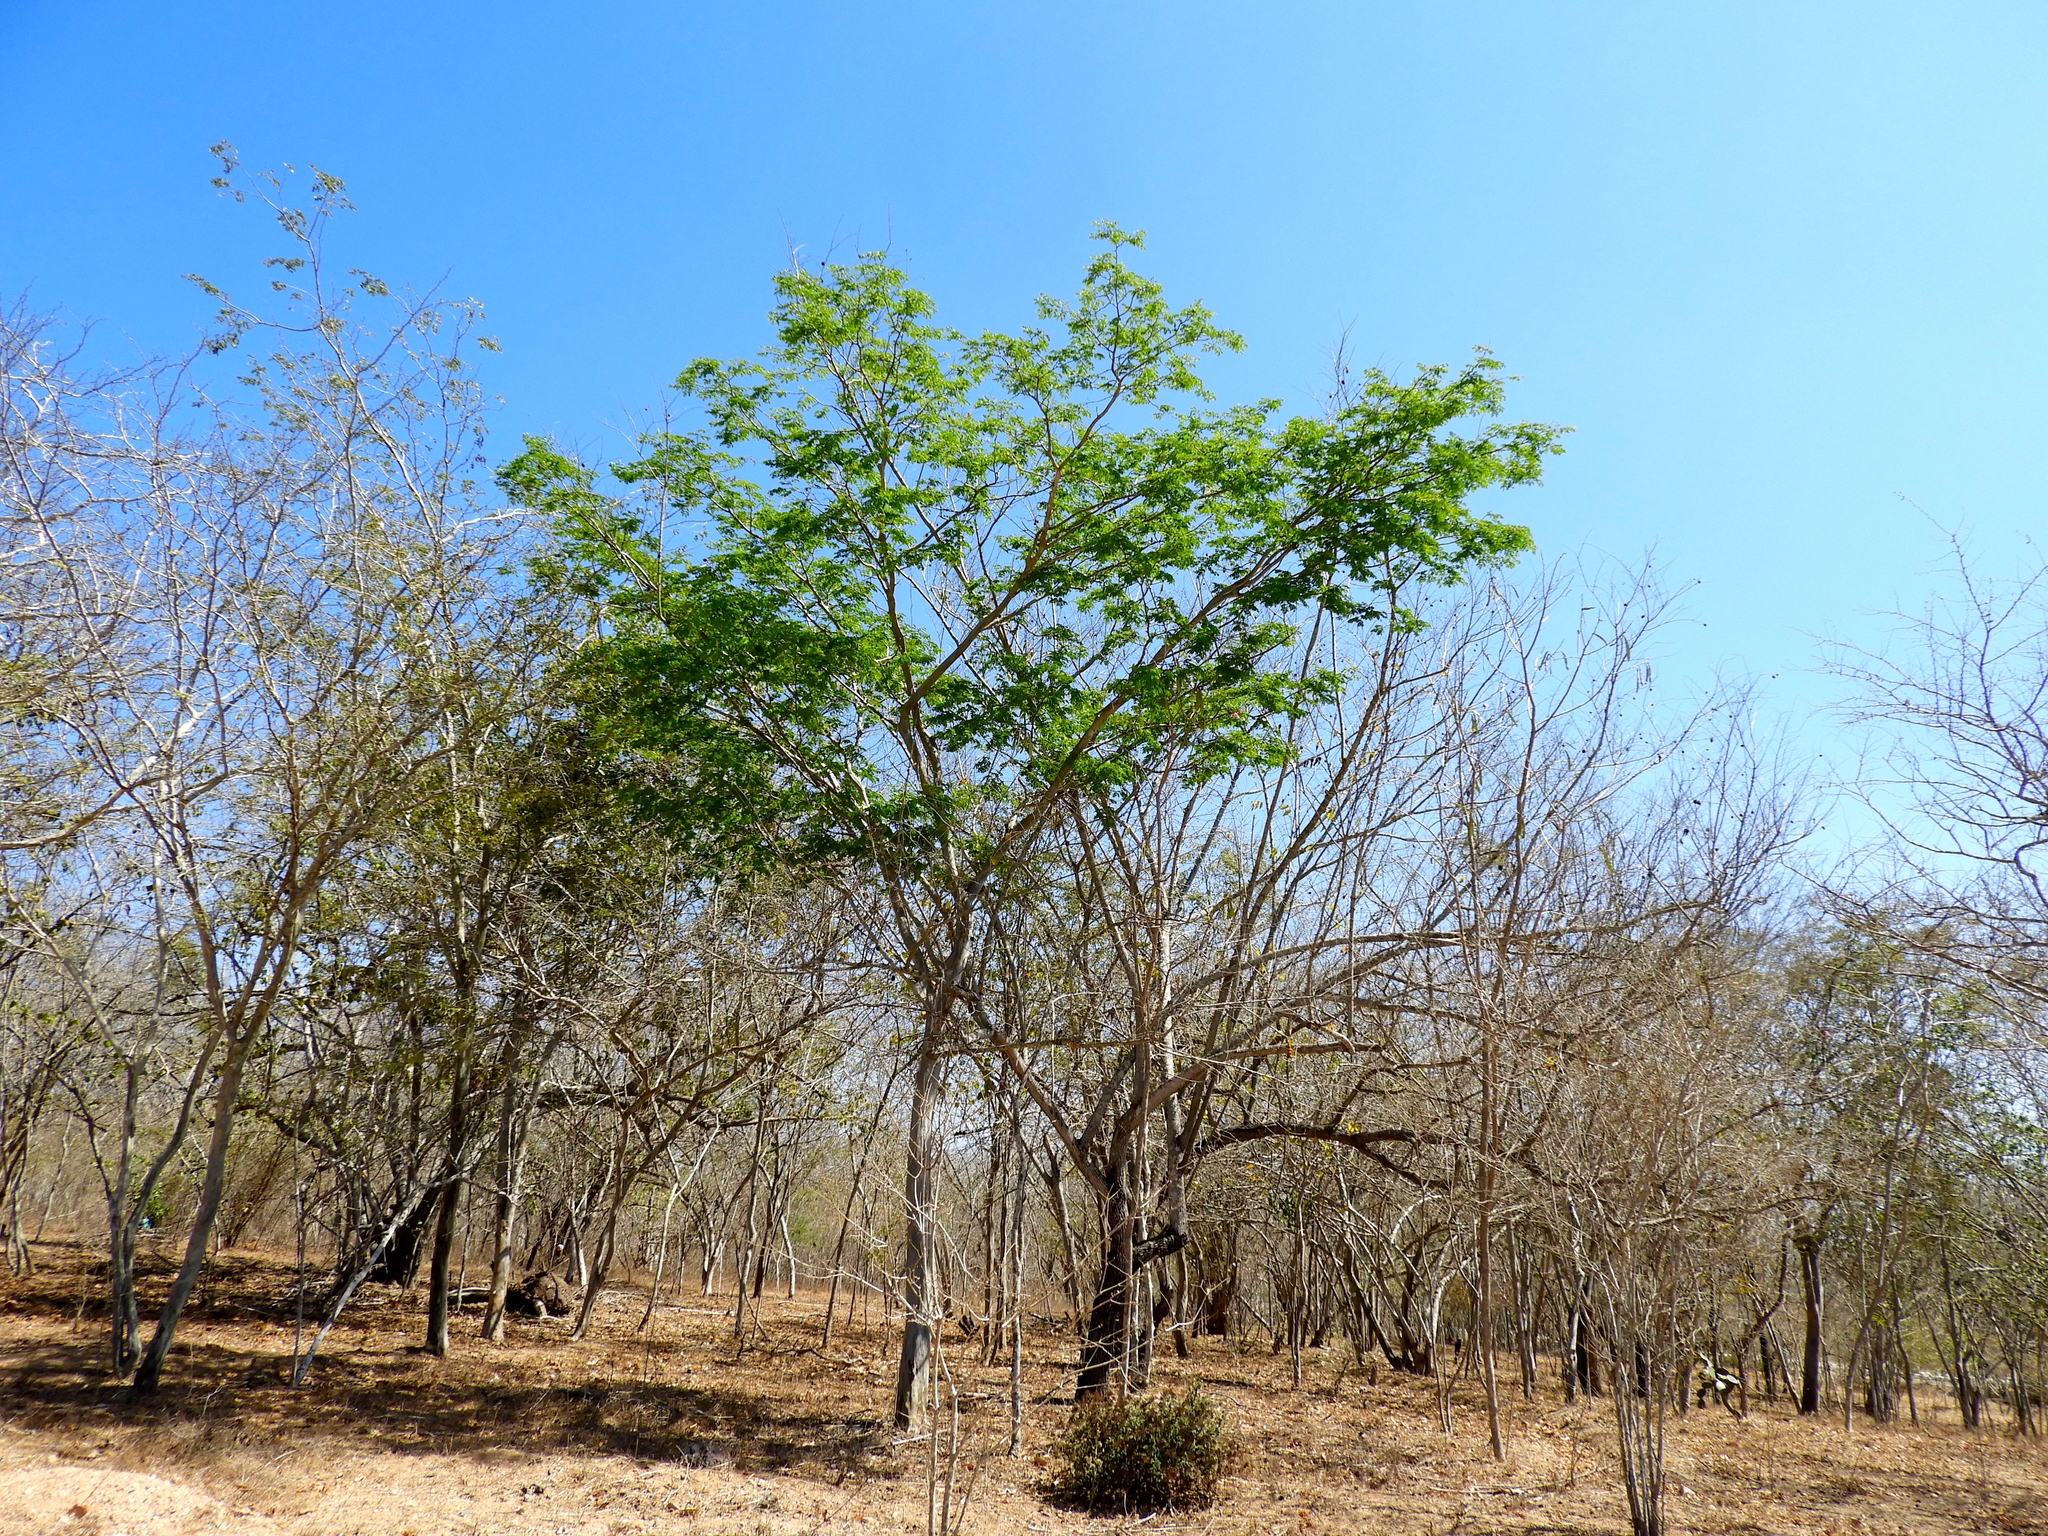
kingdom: Plantae
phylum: Tracheophyta
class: Magnoliopsida
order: Fabales
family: Fabaceae
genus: Libidibia
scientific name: Libidibia sclerocarpa
